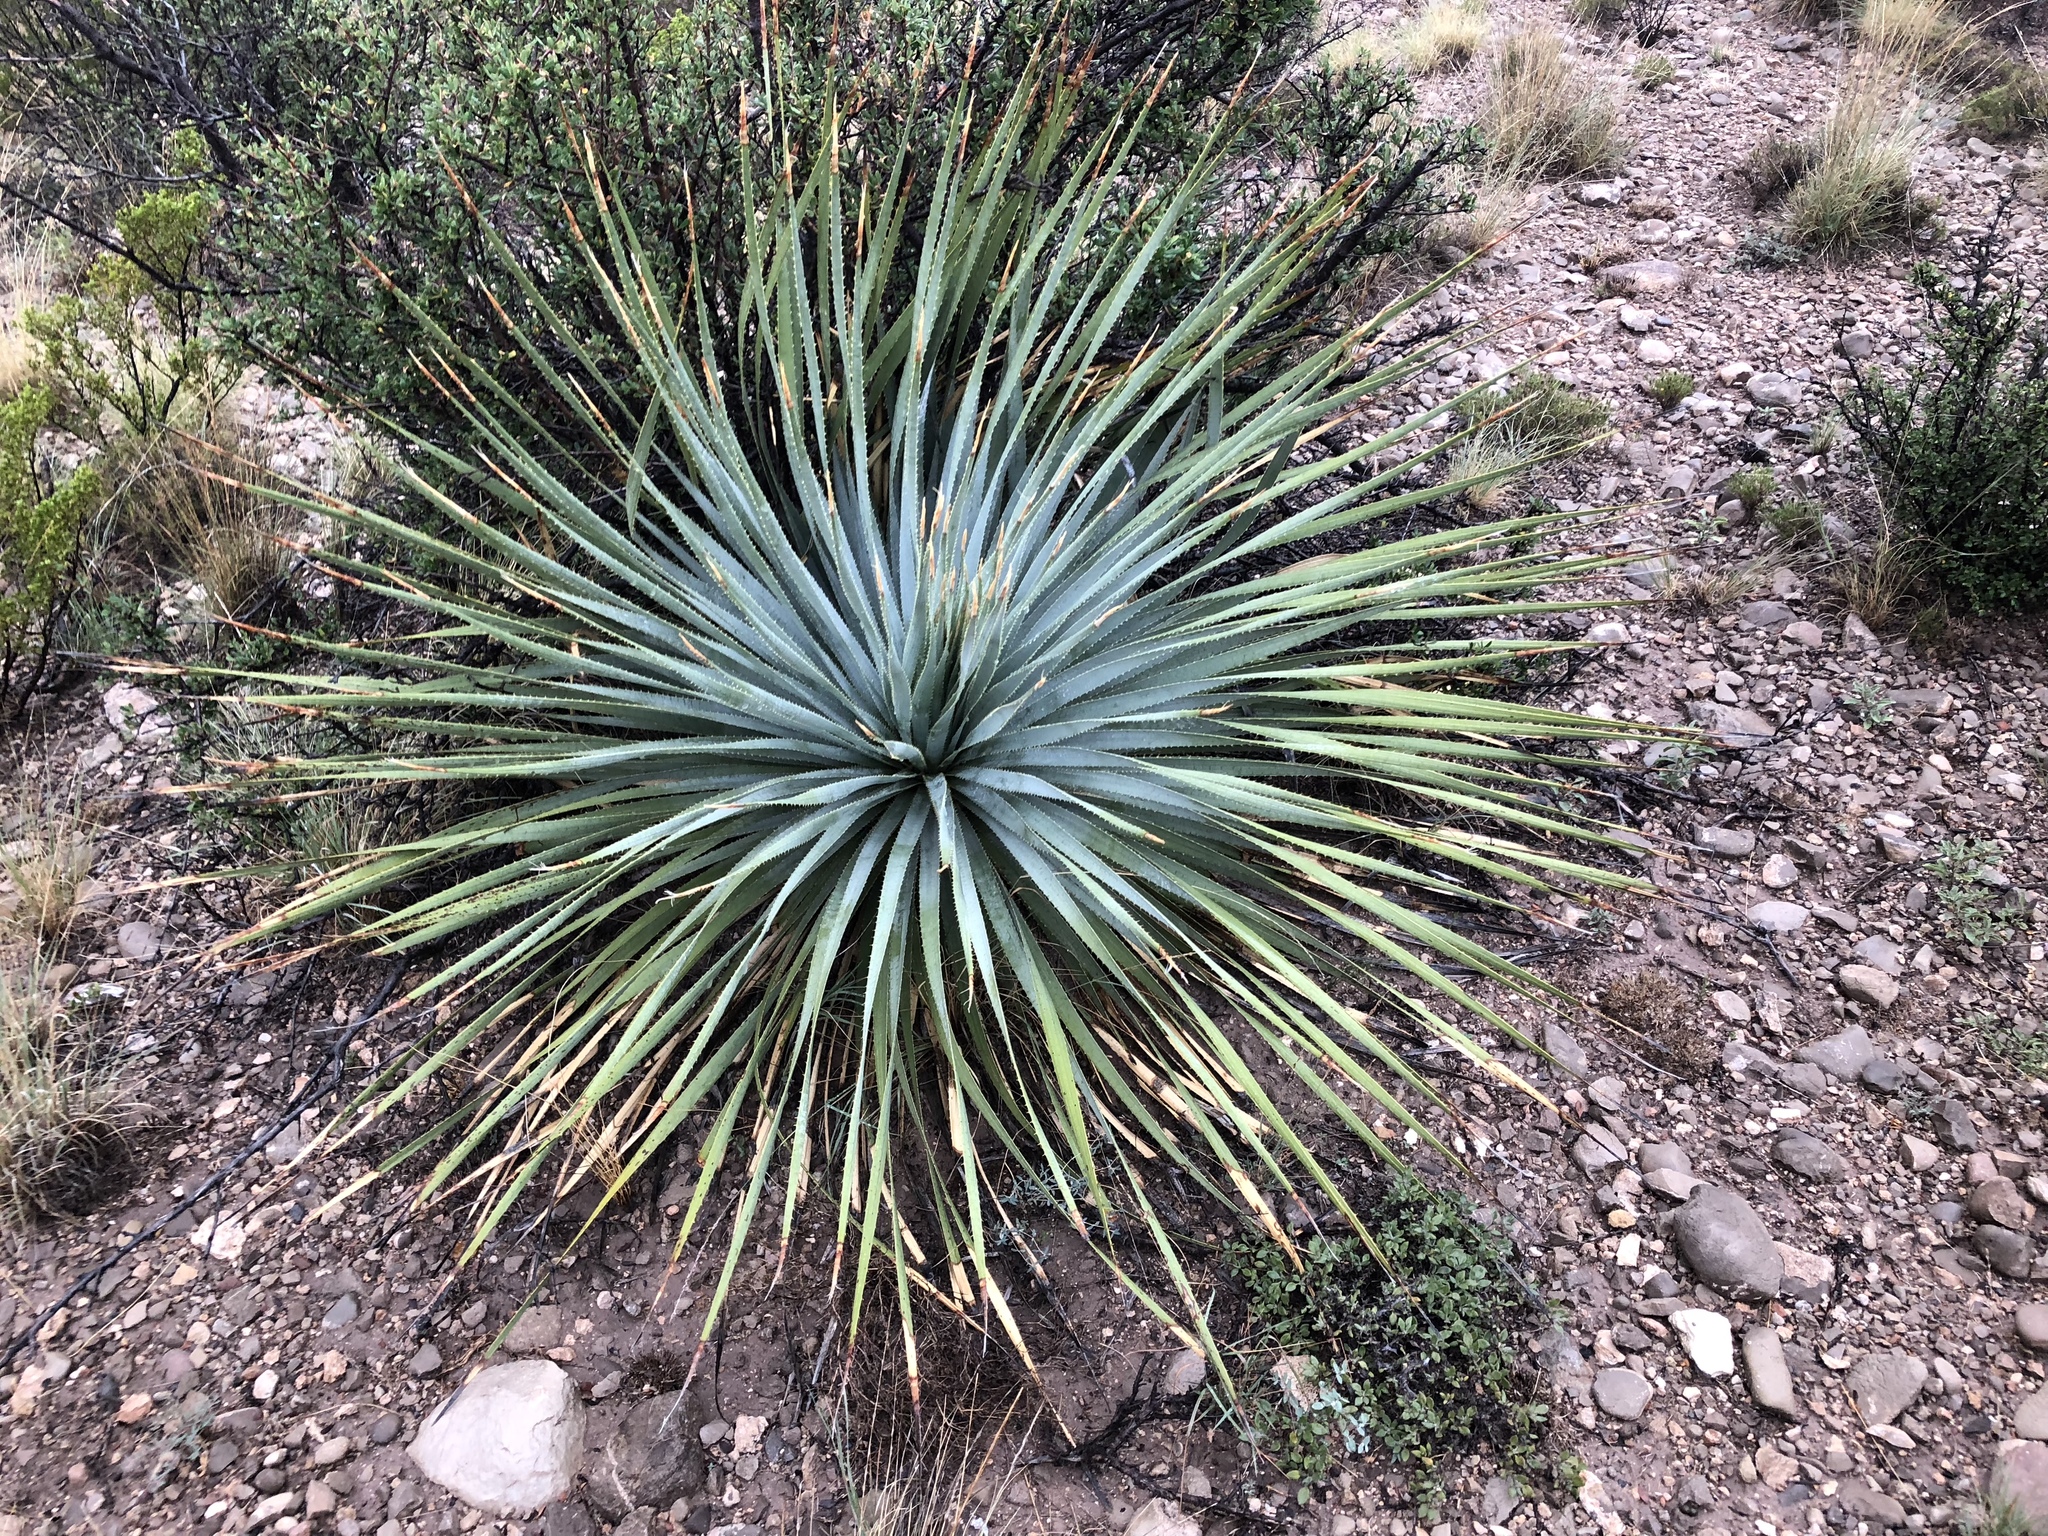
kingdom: Plantae
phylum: Tracheophyta
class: Liliopsida
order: Asparagales
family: Asparagaceae
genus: Dasylirion
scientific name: Dasylirion wheeleri
